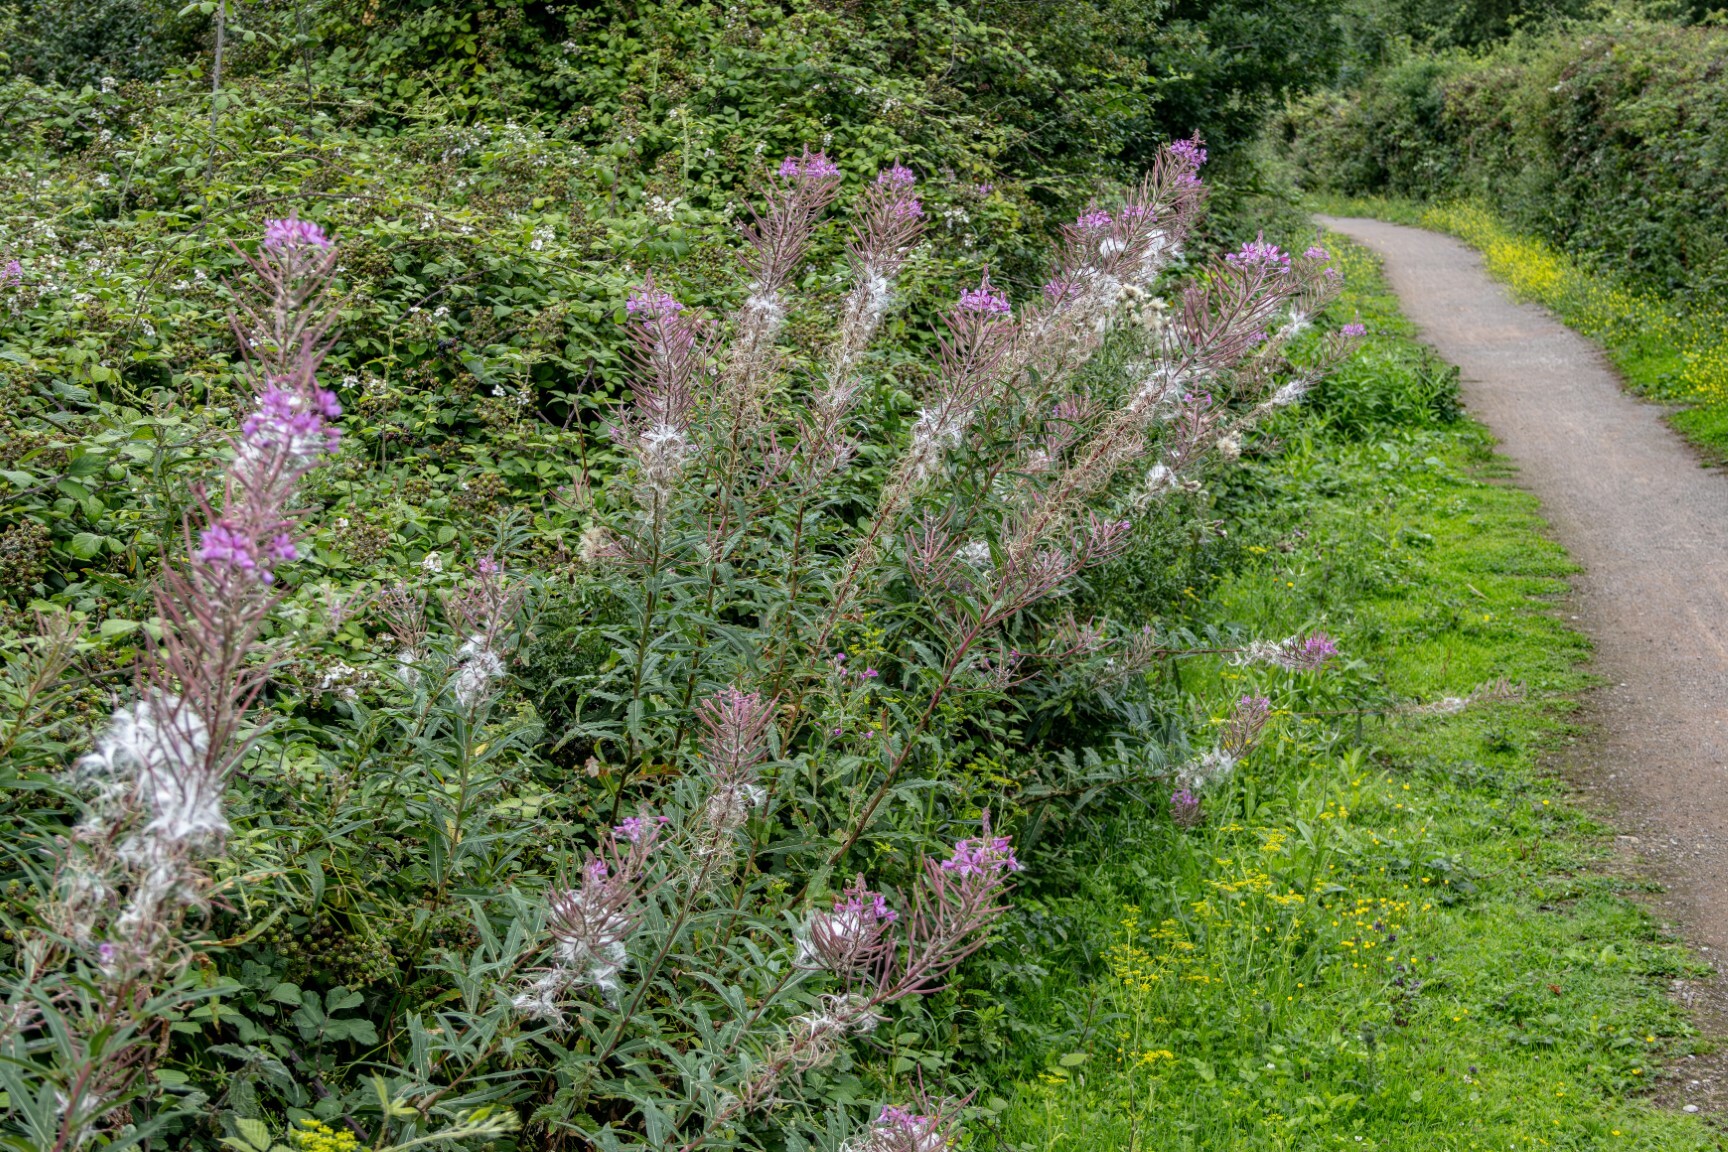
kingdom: Plantae
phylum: Tracheophyta
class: Magnoliopsida
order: Myrtales
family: Onagraceae
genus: Chamaenerion
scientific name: Chamaenerion angustifolium
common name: Fireweed
